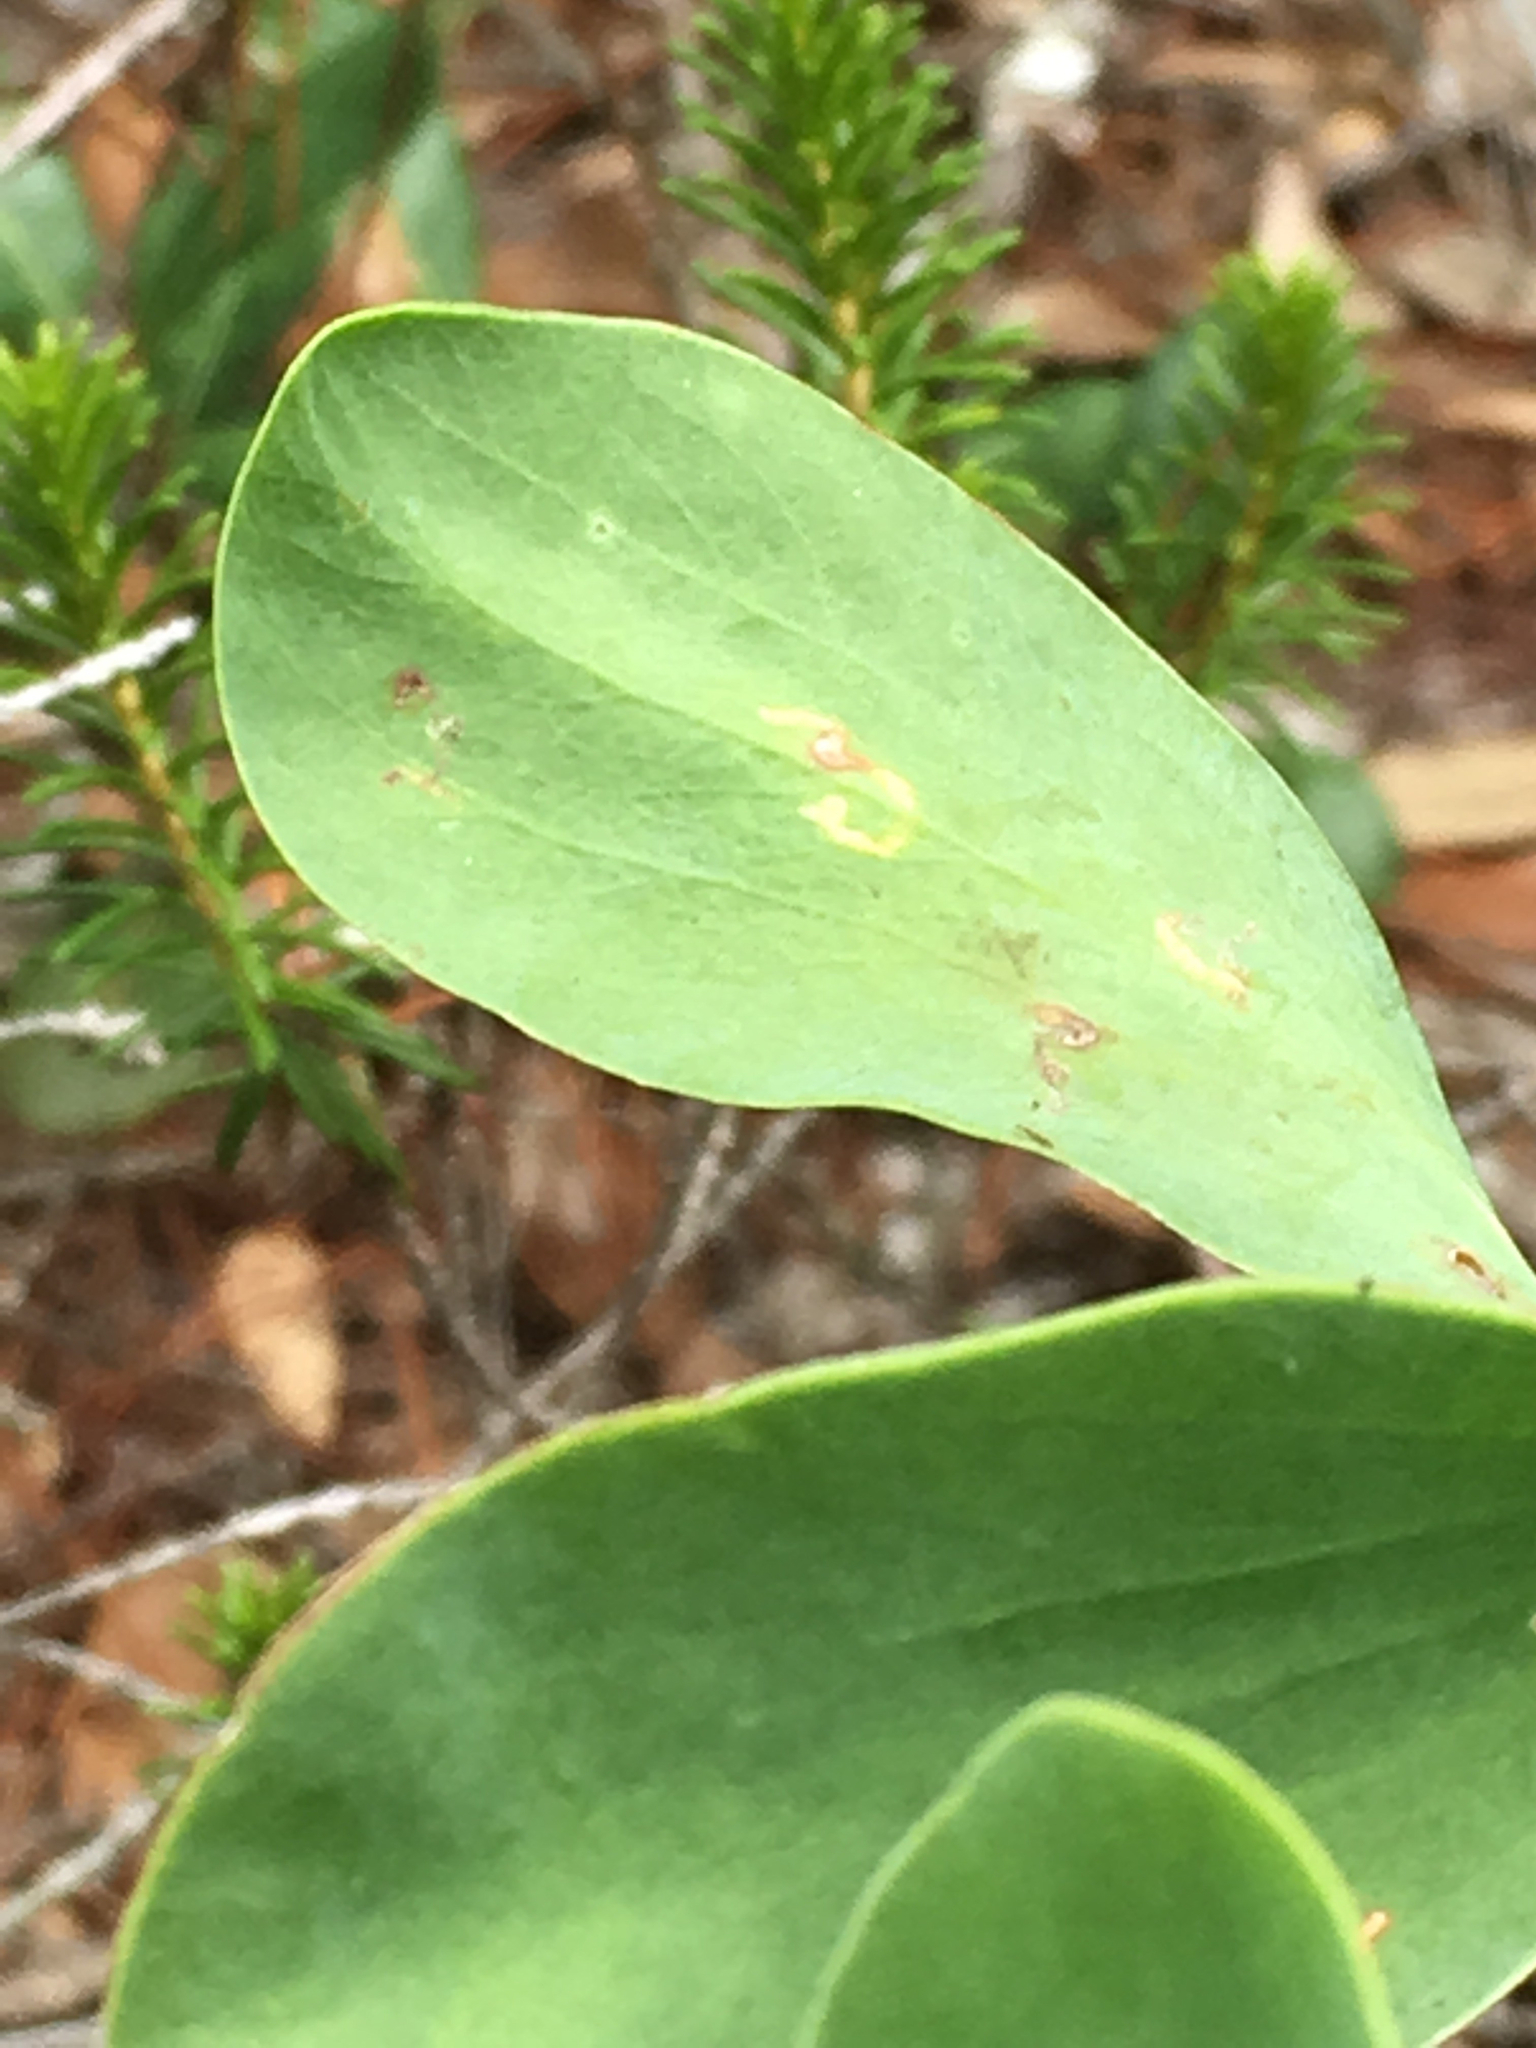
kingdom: Plantae
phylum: Tracheophyta
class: Magnoliopsida
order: Caryophyllales
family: Polygonaceae
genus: Polygonella
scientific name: Polygonella macrophylla
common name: Large-leaf wireweed
